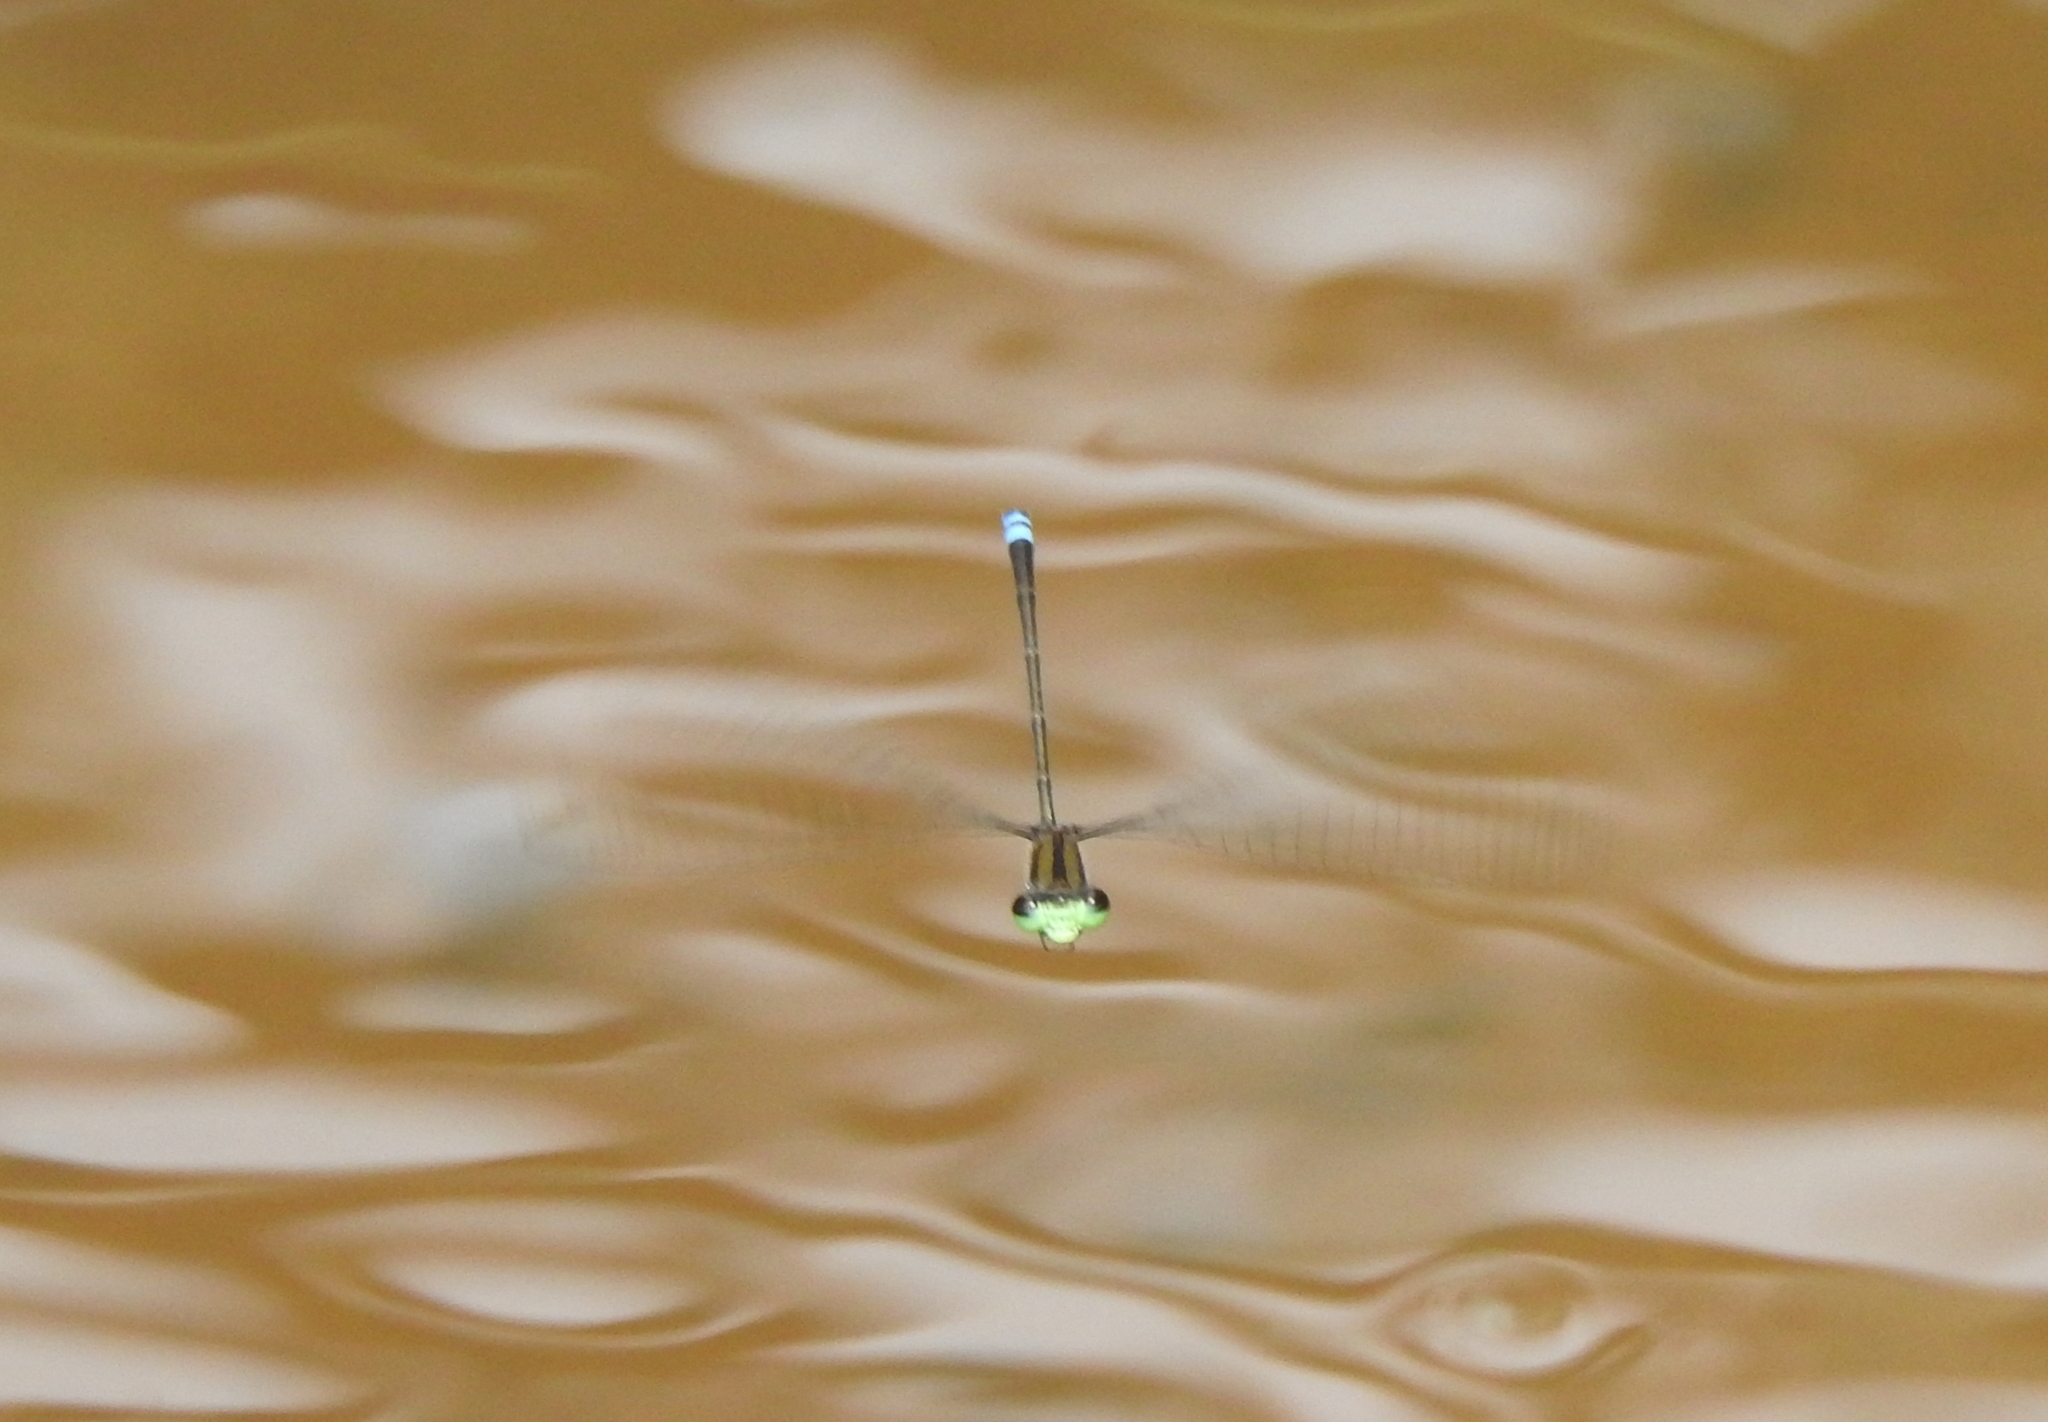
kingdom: Animalia
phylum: Arthropoda
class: Insecta
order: Odonata
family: Coenagrionidae
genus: Pseudagrion
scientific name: Pseudagrion indicum
